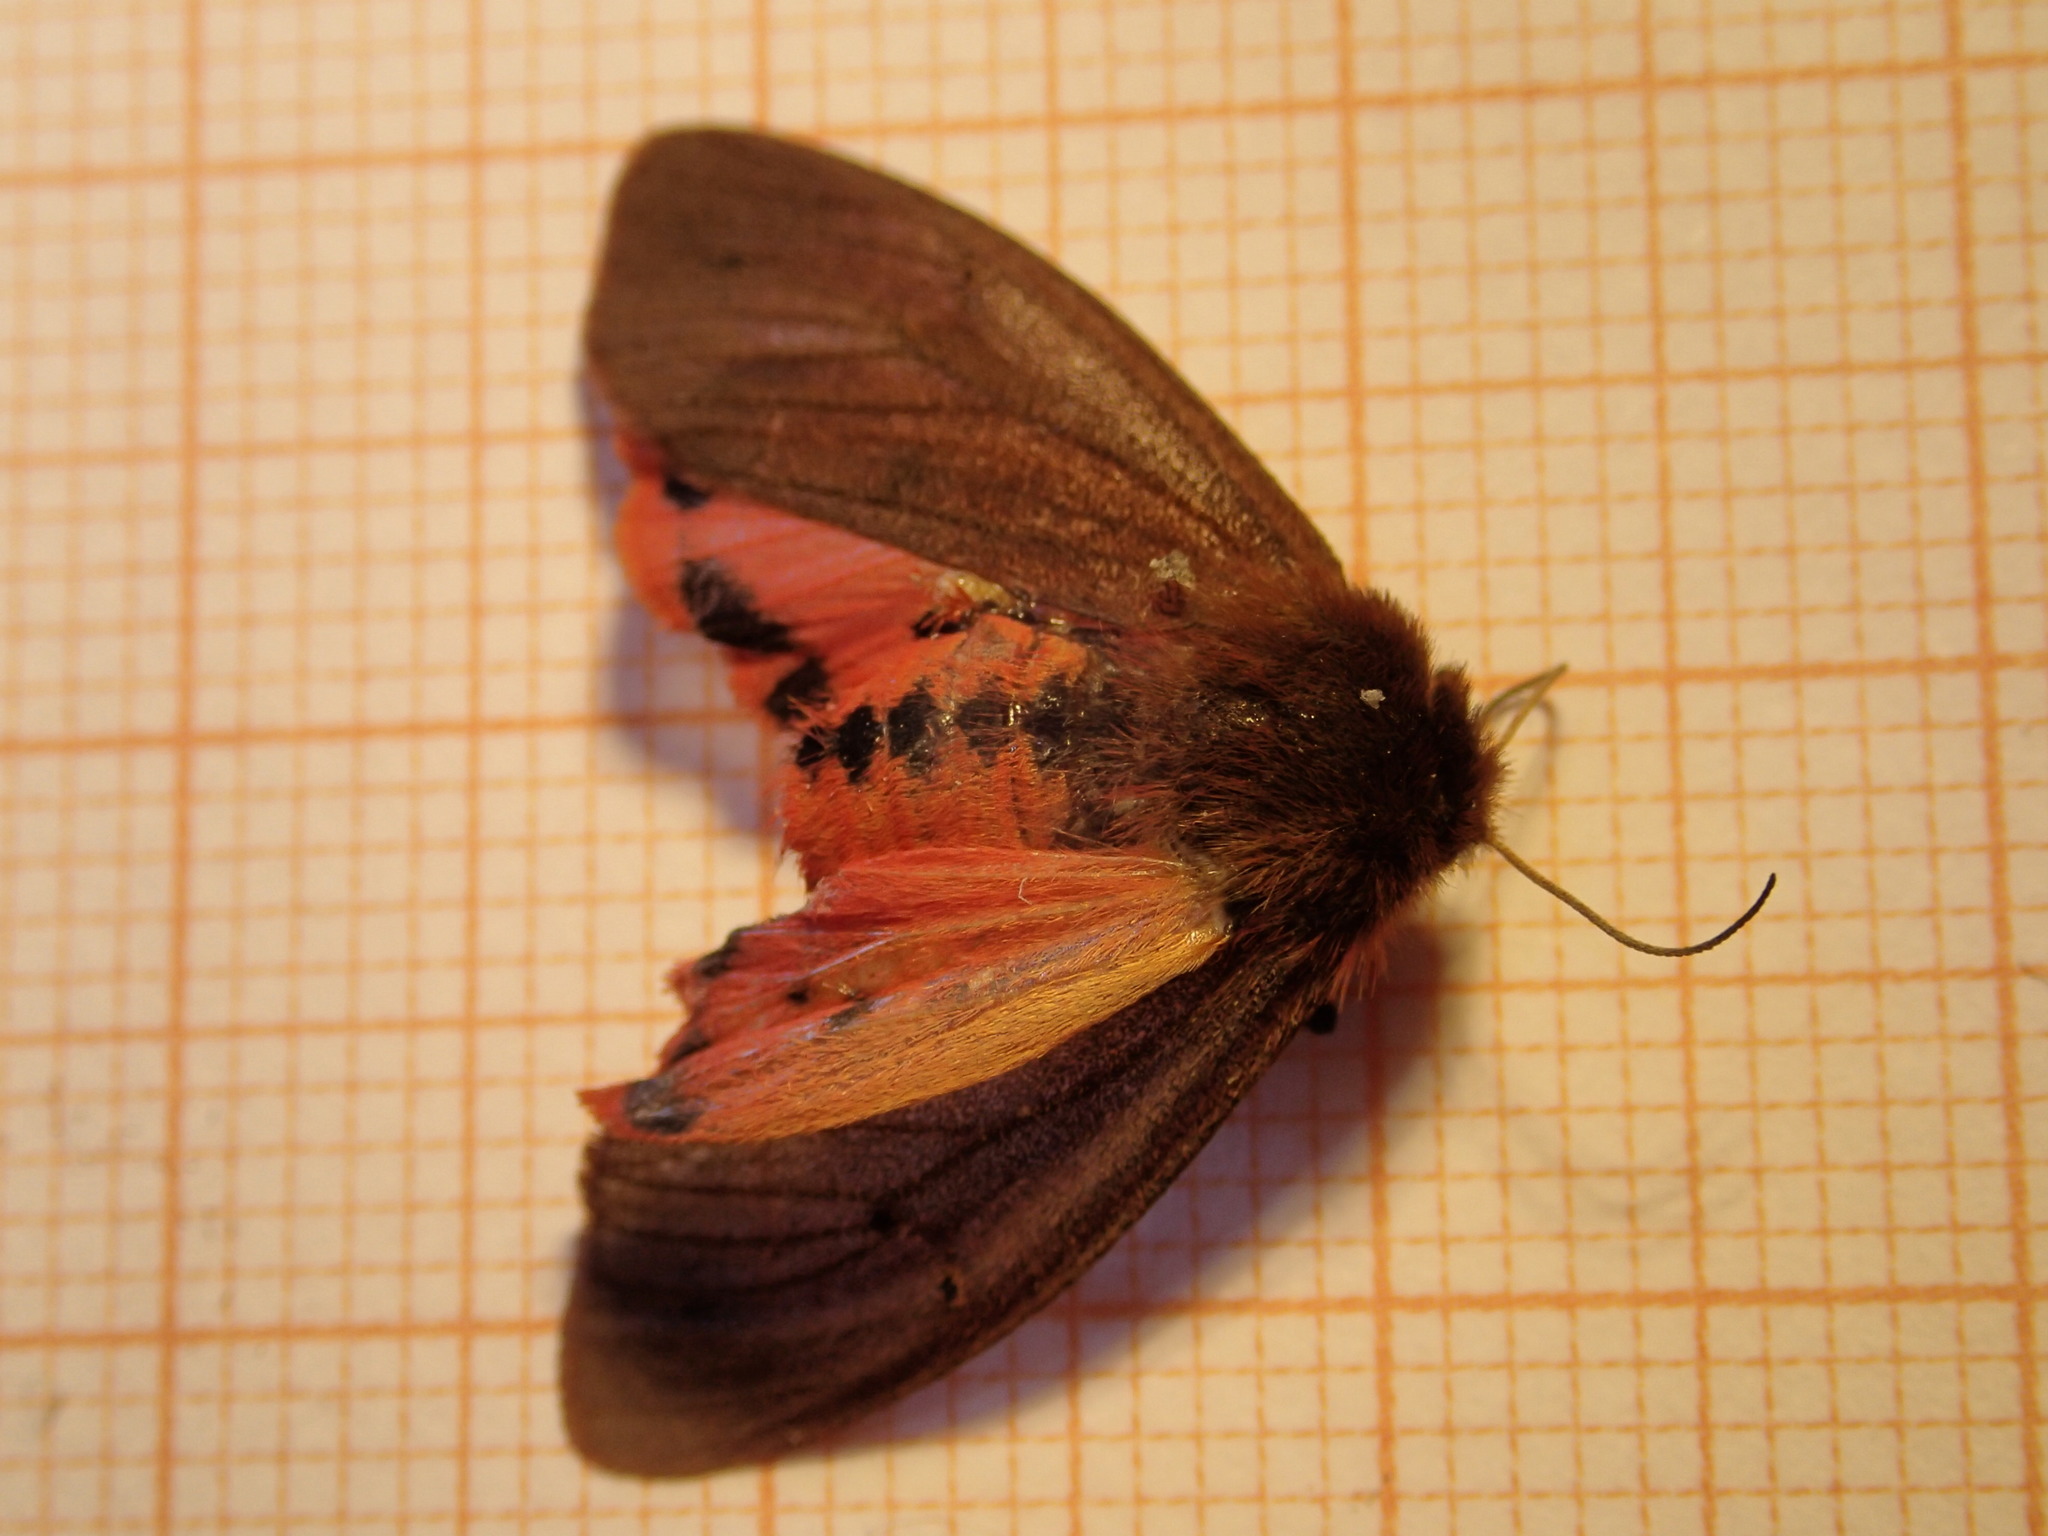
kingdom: Animalia
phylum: Arthropoda
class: Insecta
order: Lepidoptera
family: Erebidae
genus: Phragmatobia
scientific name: Phragmatobia fuliginosa
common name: Ruby tiger
